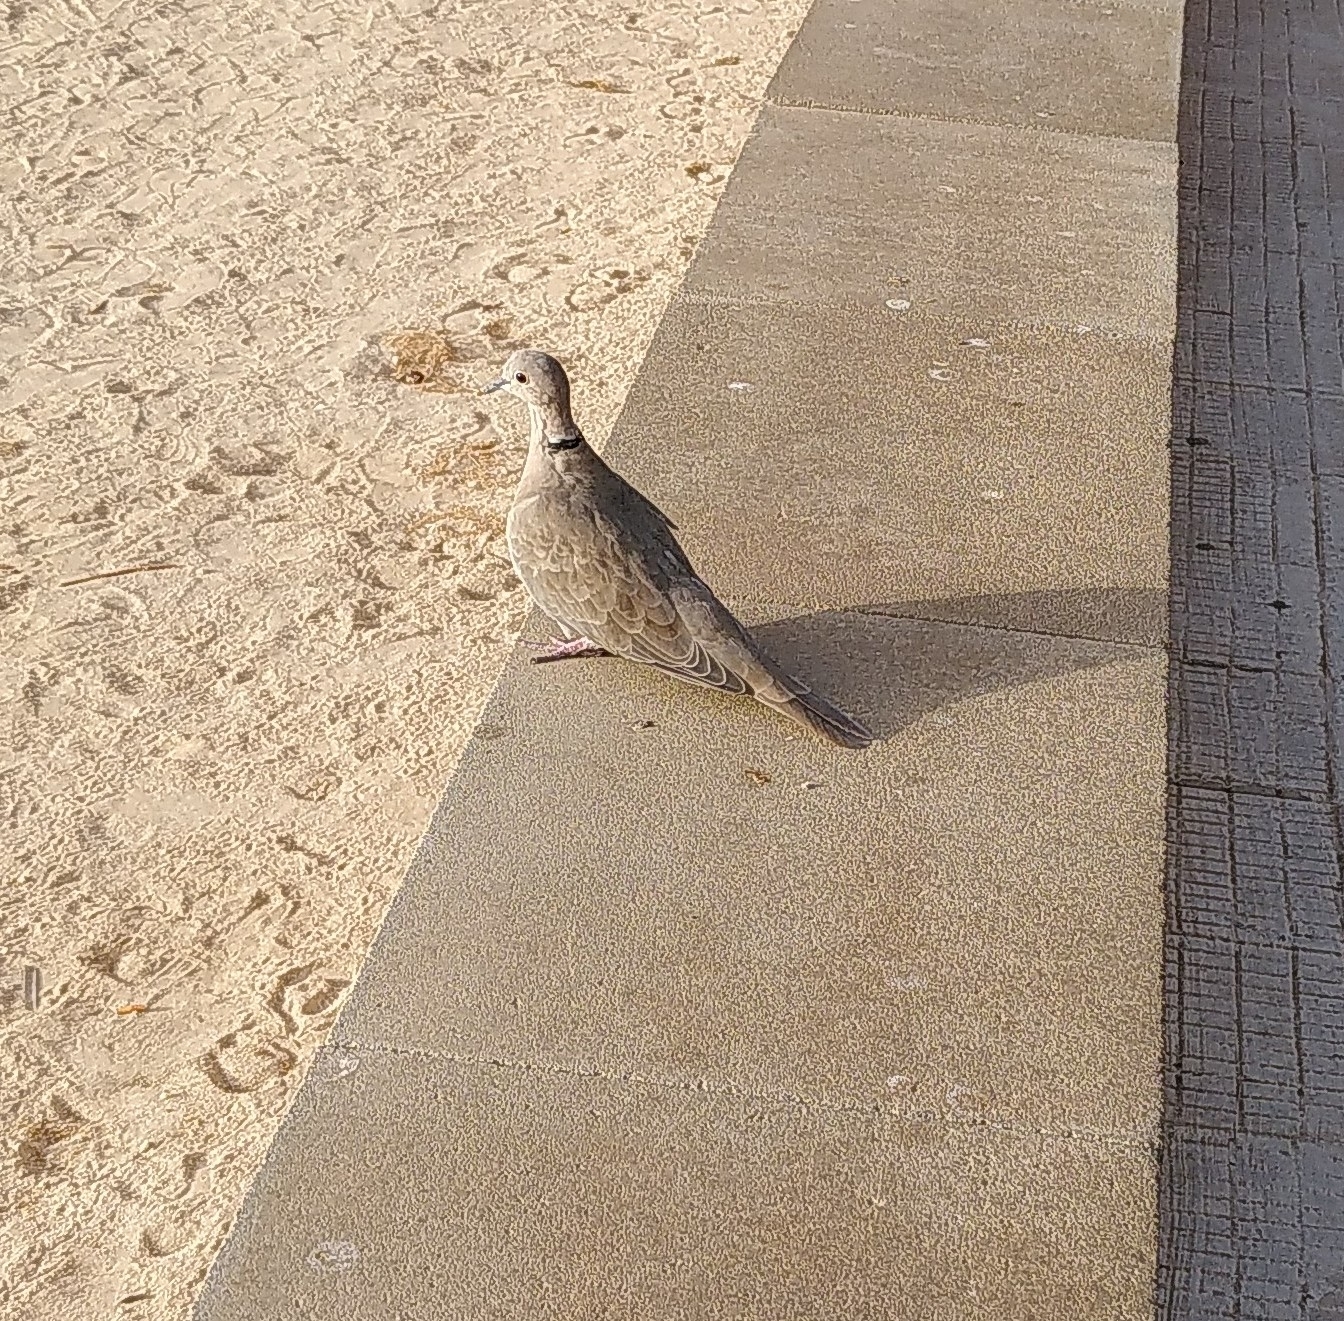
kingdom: Animalia
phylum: Chordata
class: Aves
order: Columbiformes
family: Columbidae
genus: Streptopelia
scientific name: Streptopelia decaocto
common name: Eurasian collared dove
